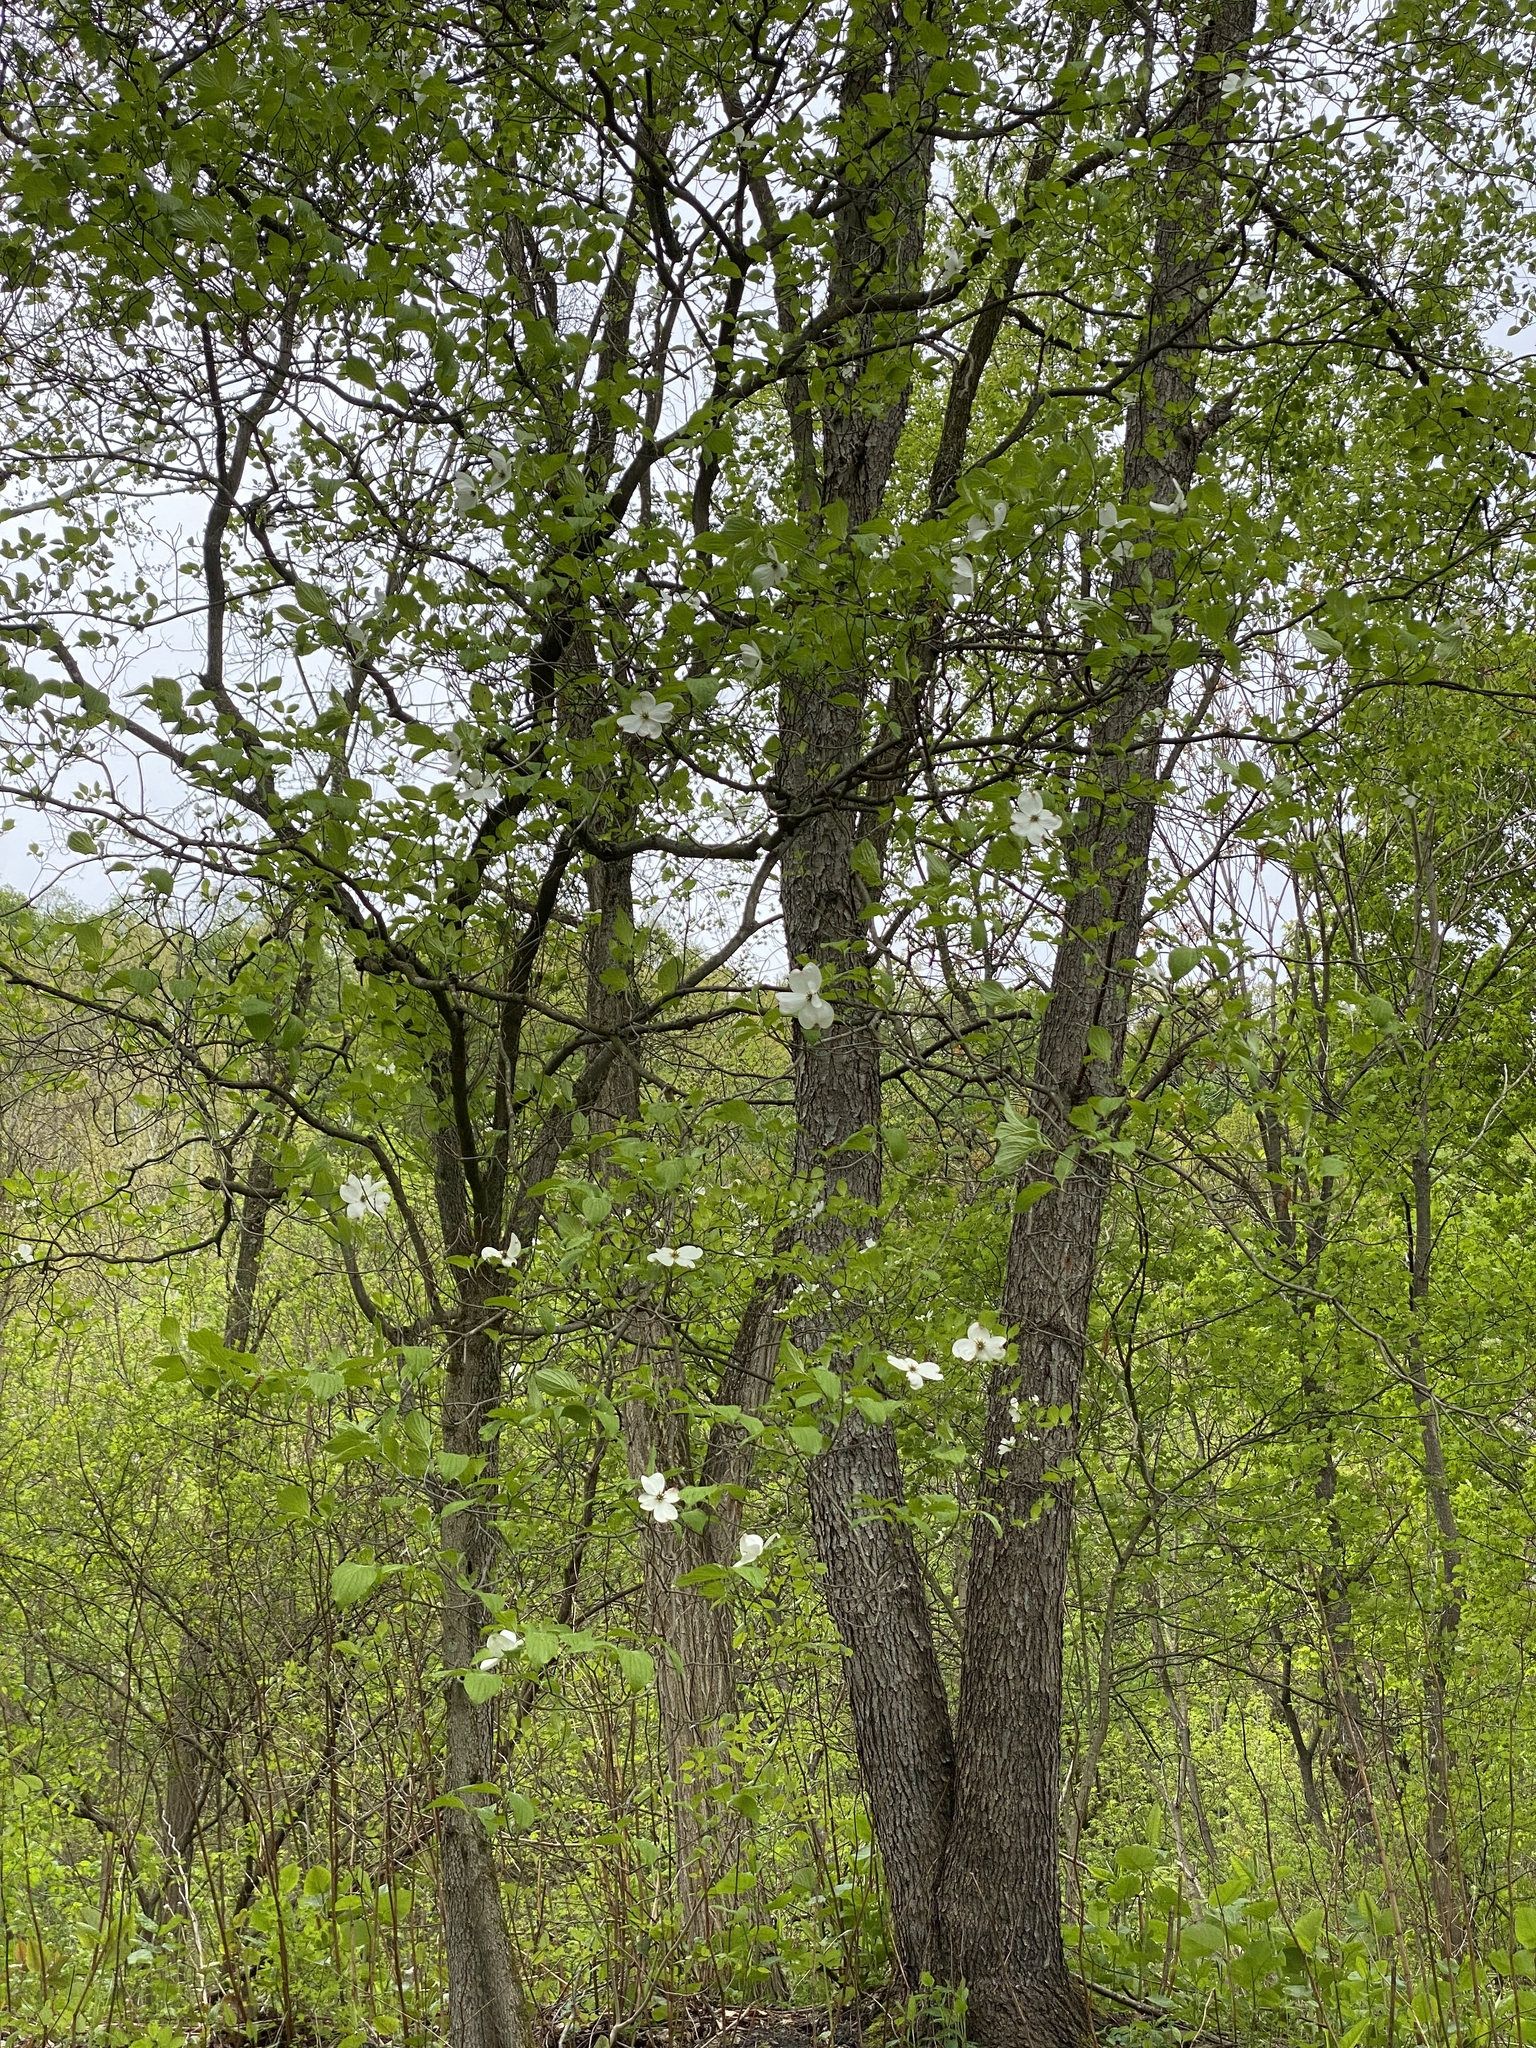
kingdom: Plantae
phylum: Tracheophyta
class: Magnoliopsida
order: Cornales
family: Cornaceae
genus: Cornus
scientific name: Cornus florida
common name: Flowering dogwood
